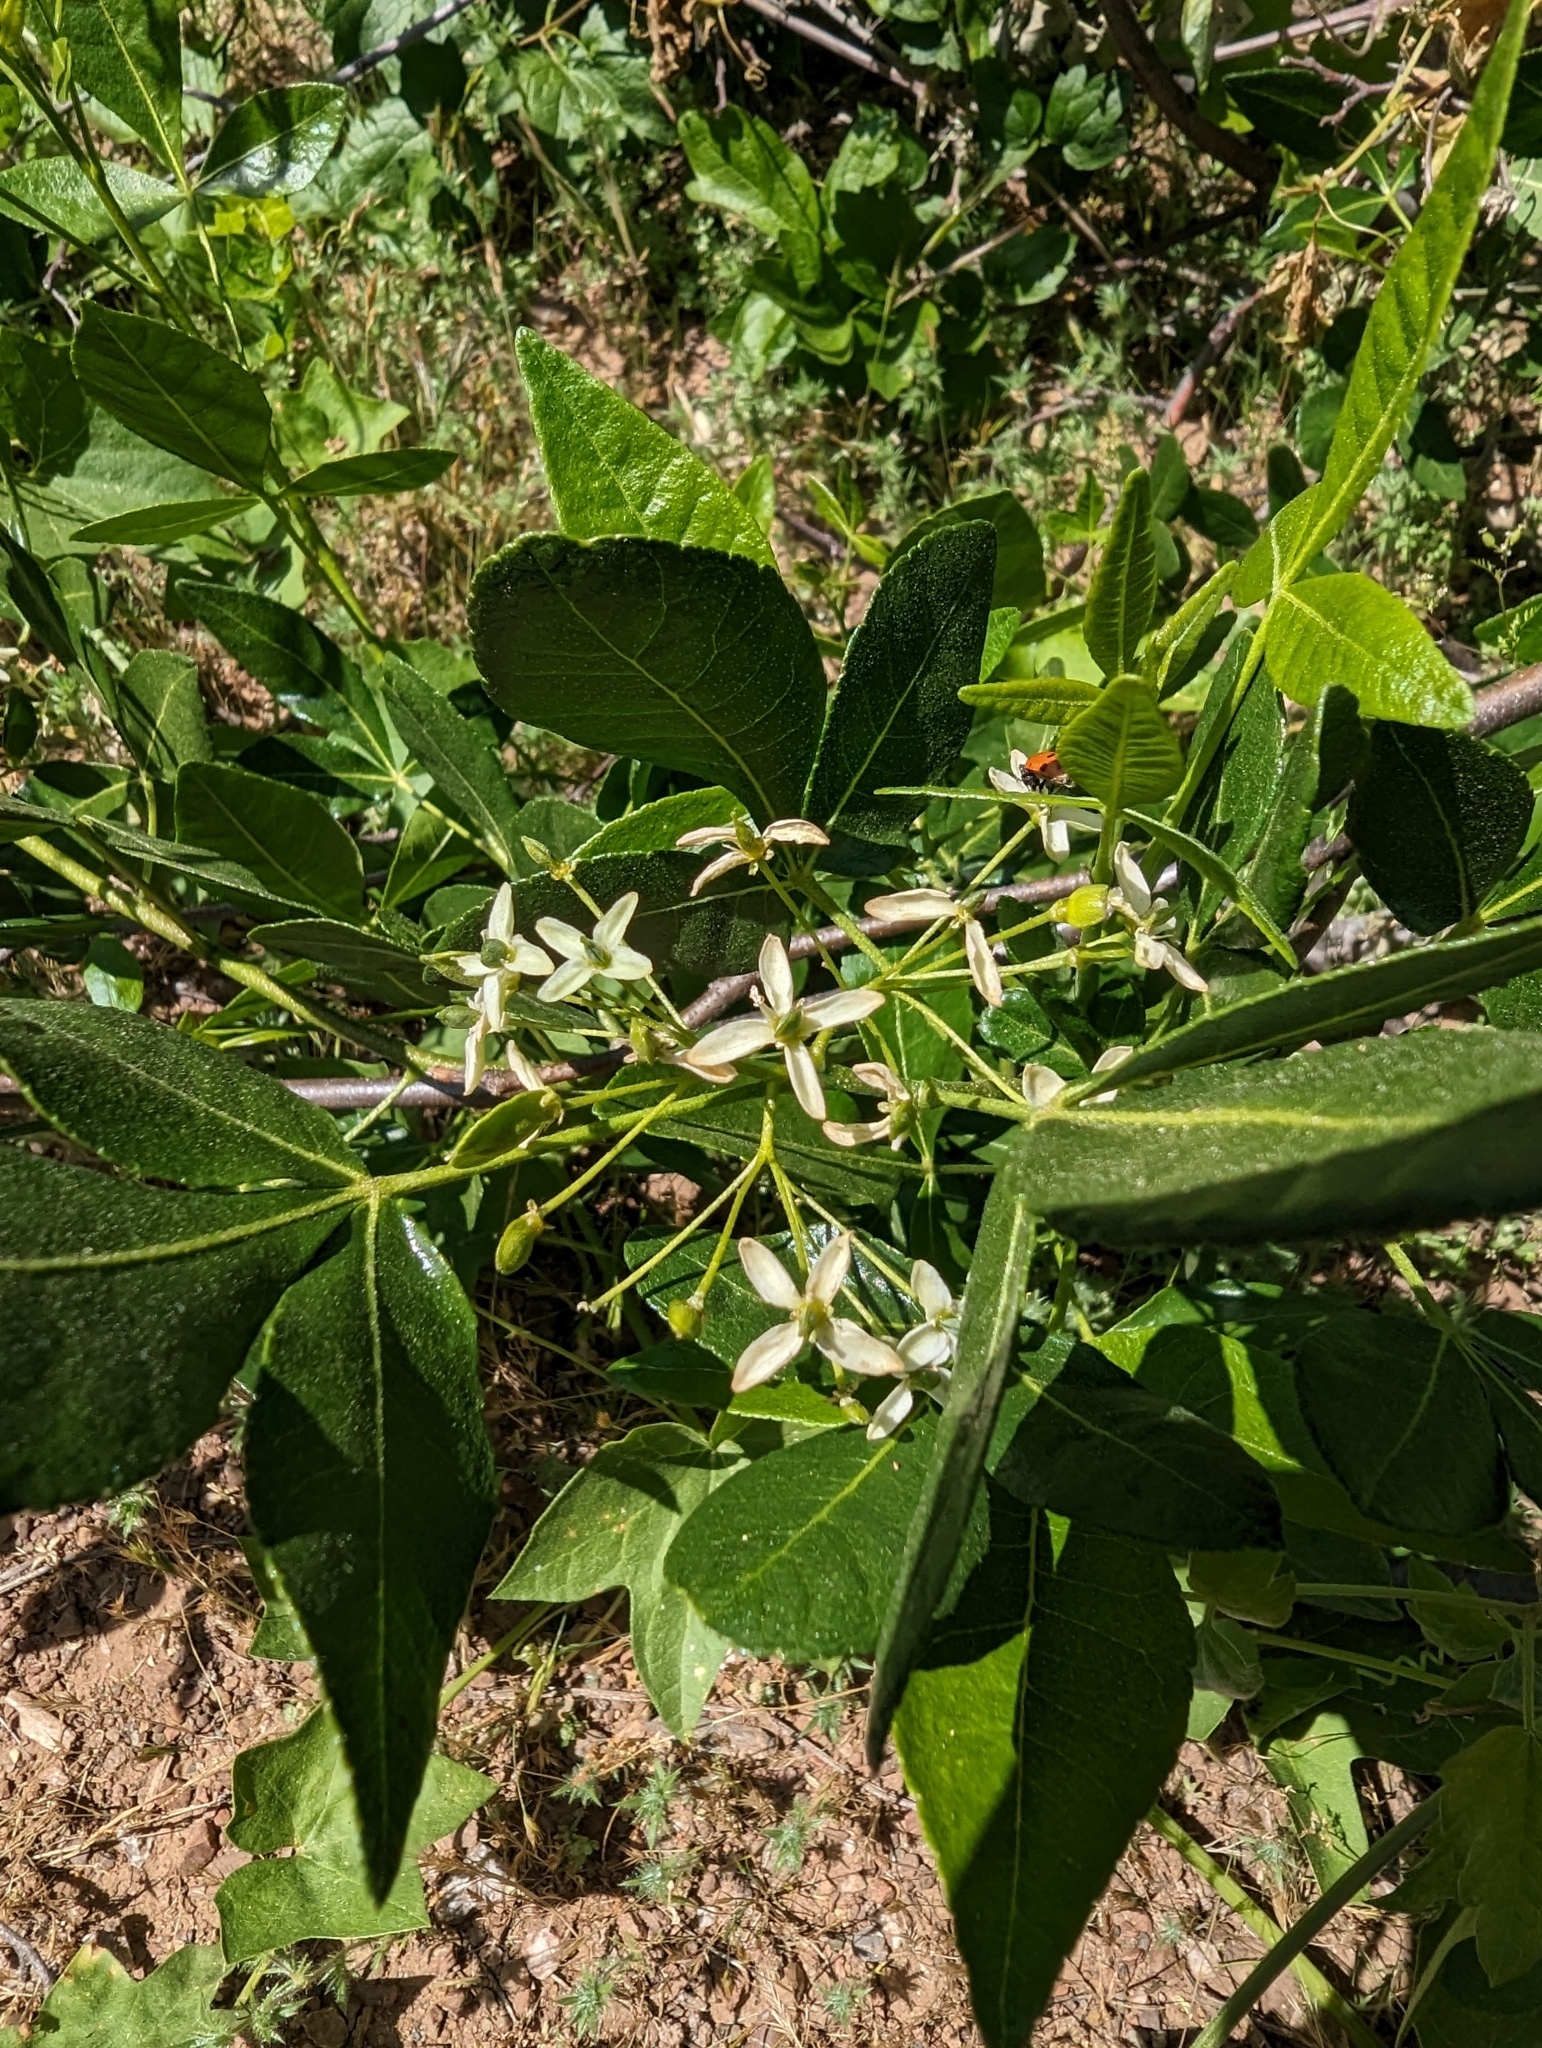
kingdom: Plantae
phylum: Tracheophyta
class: Magnoliopsida
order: Sapindales
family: Rutaceae
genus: Ptelea
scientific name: Ptelea crenulata
